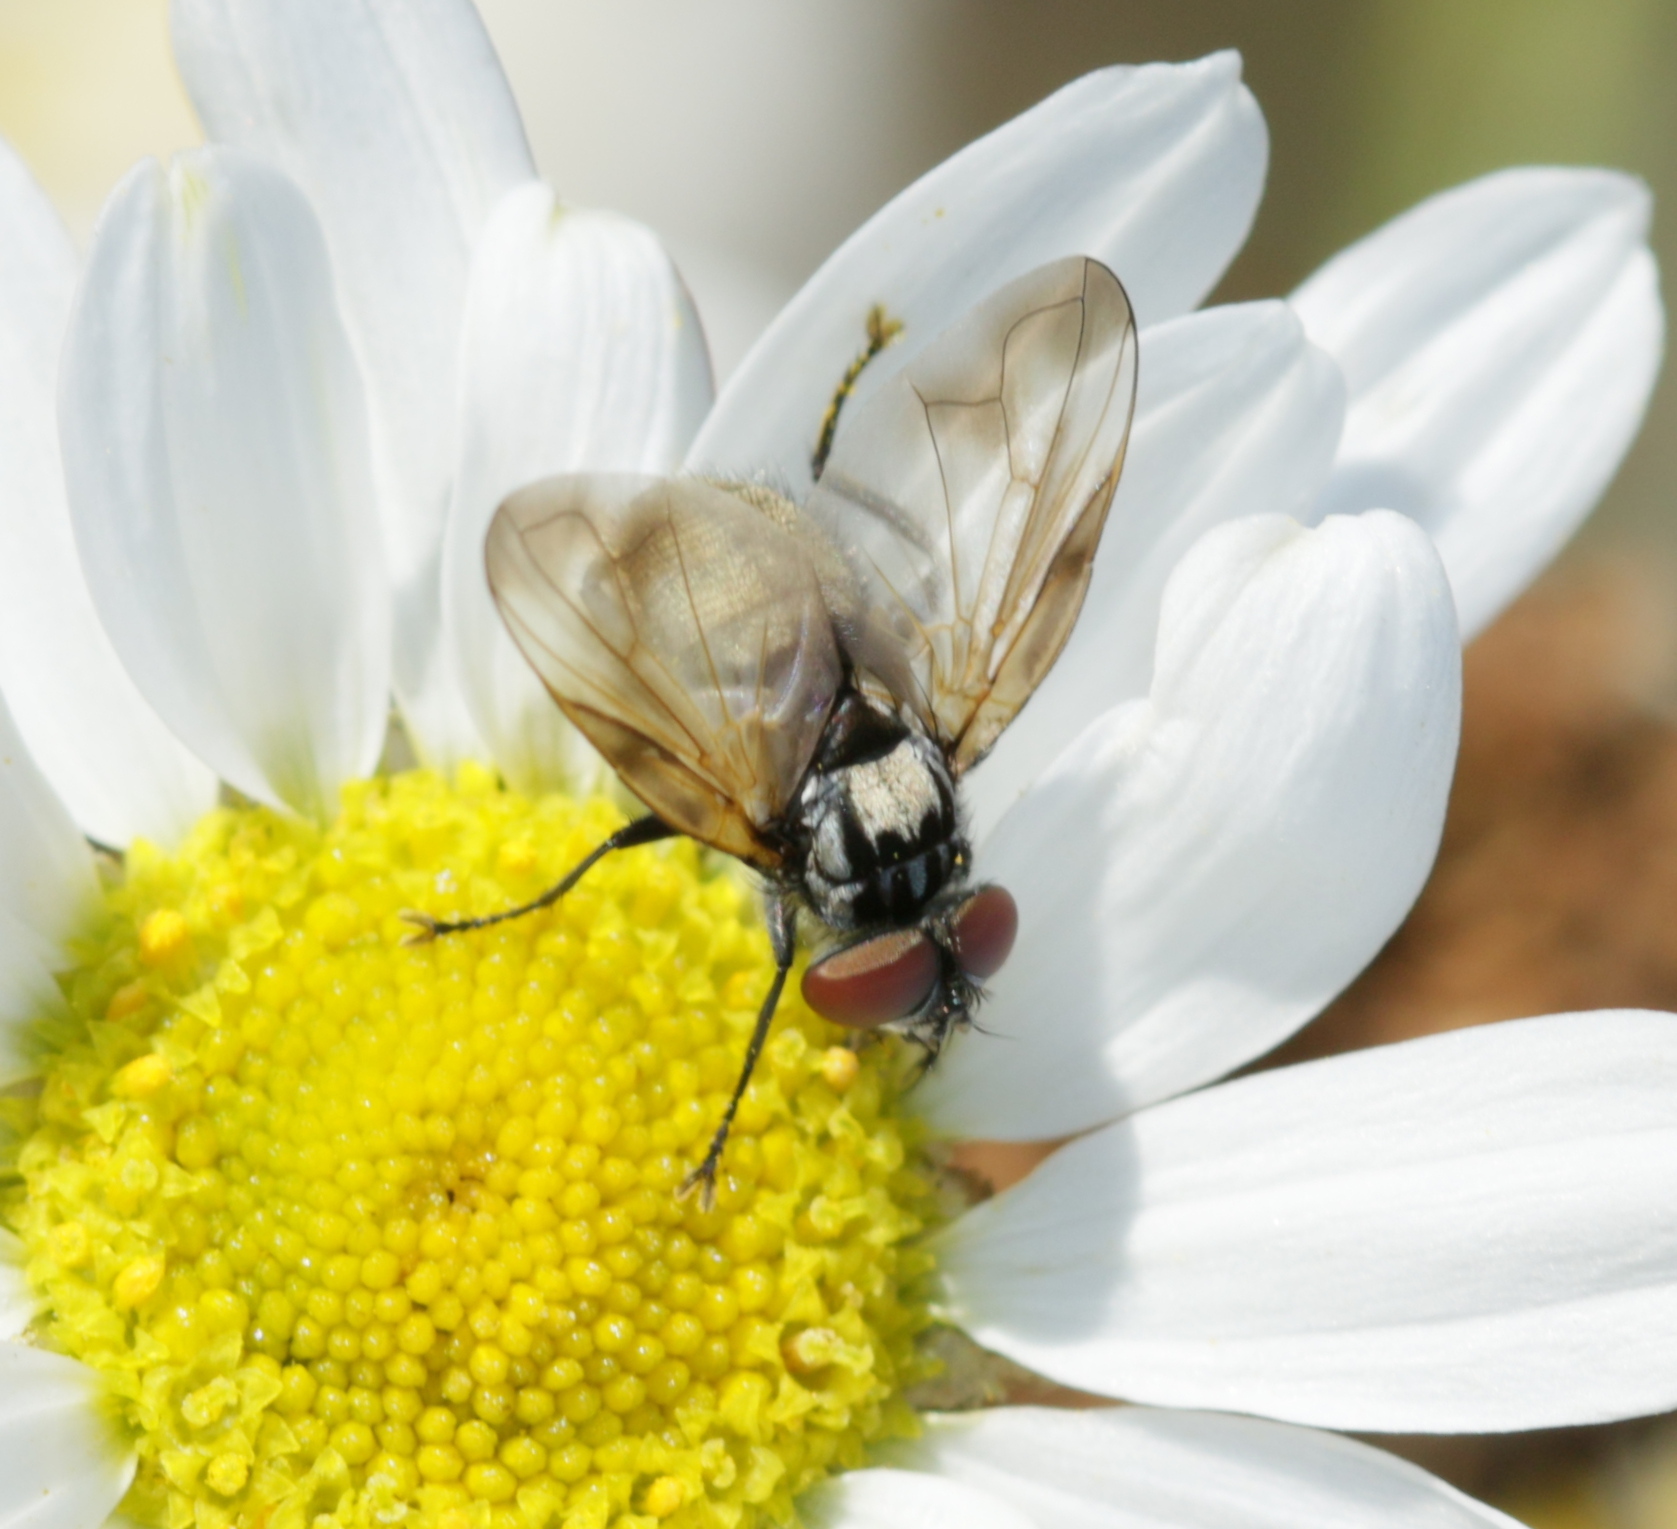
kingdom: Animalia
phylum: Arthropoda
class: Insecta
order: Diptera
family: Tachinidae
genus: Phasia
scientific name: Phasia obesa
